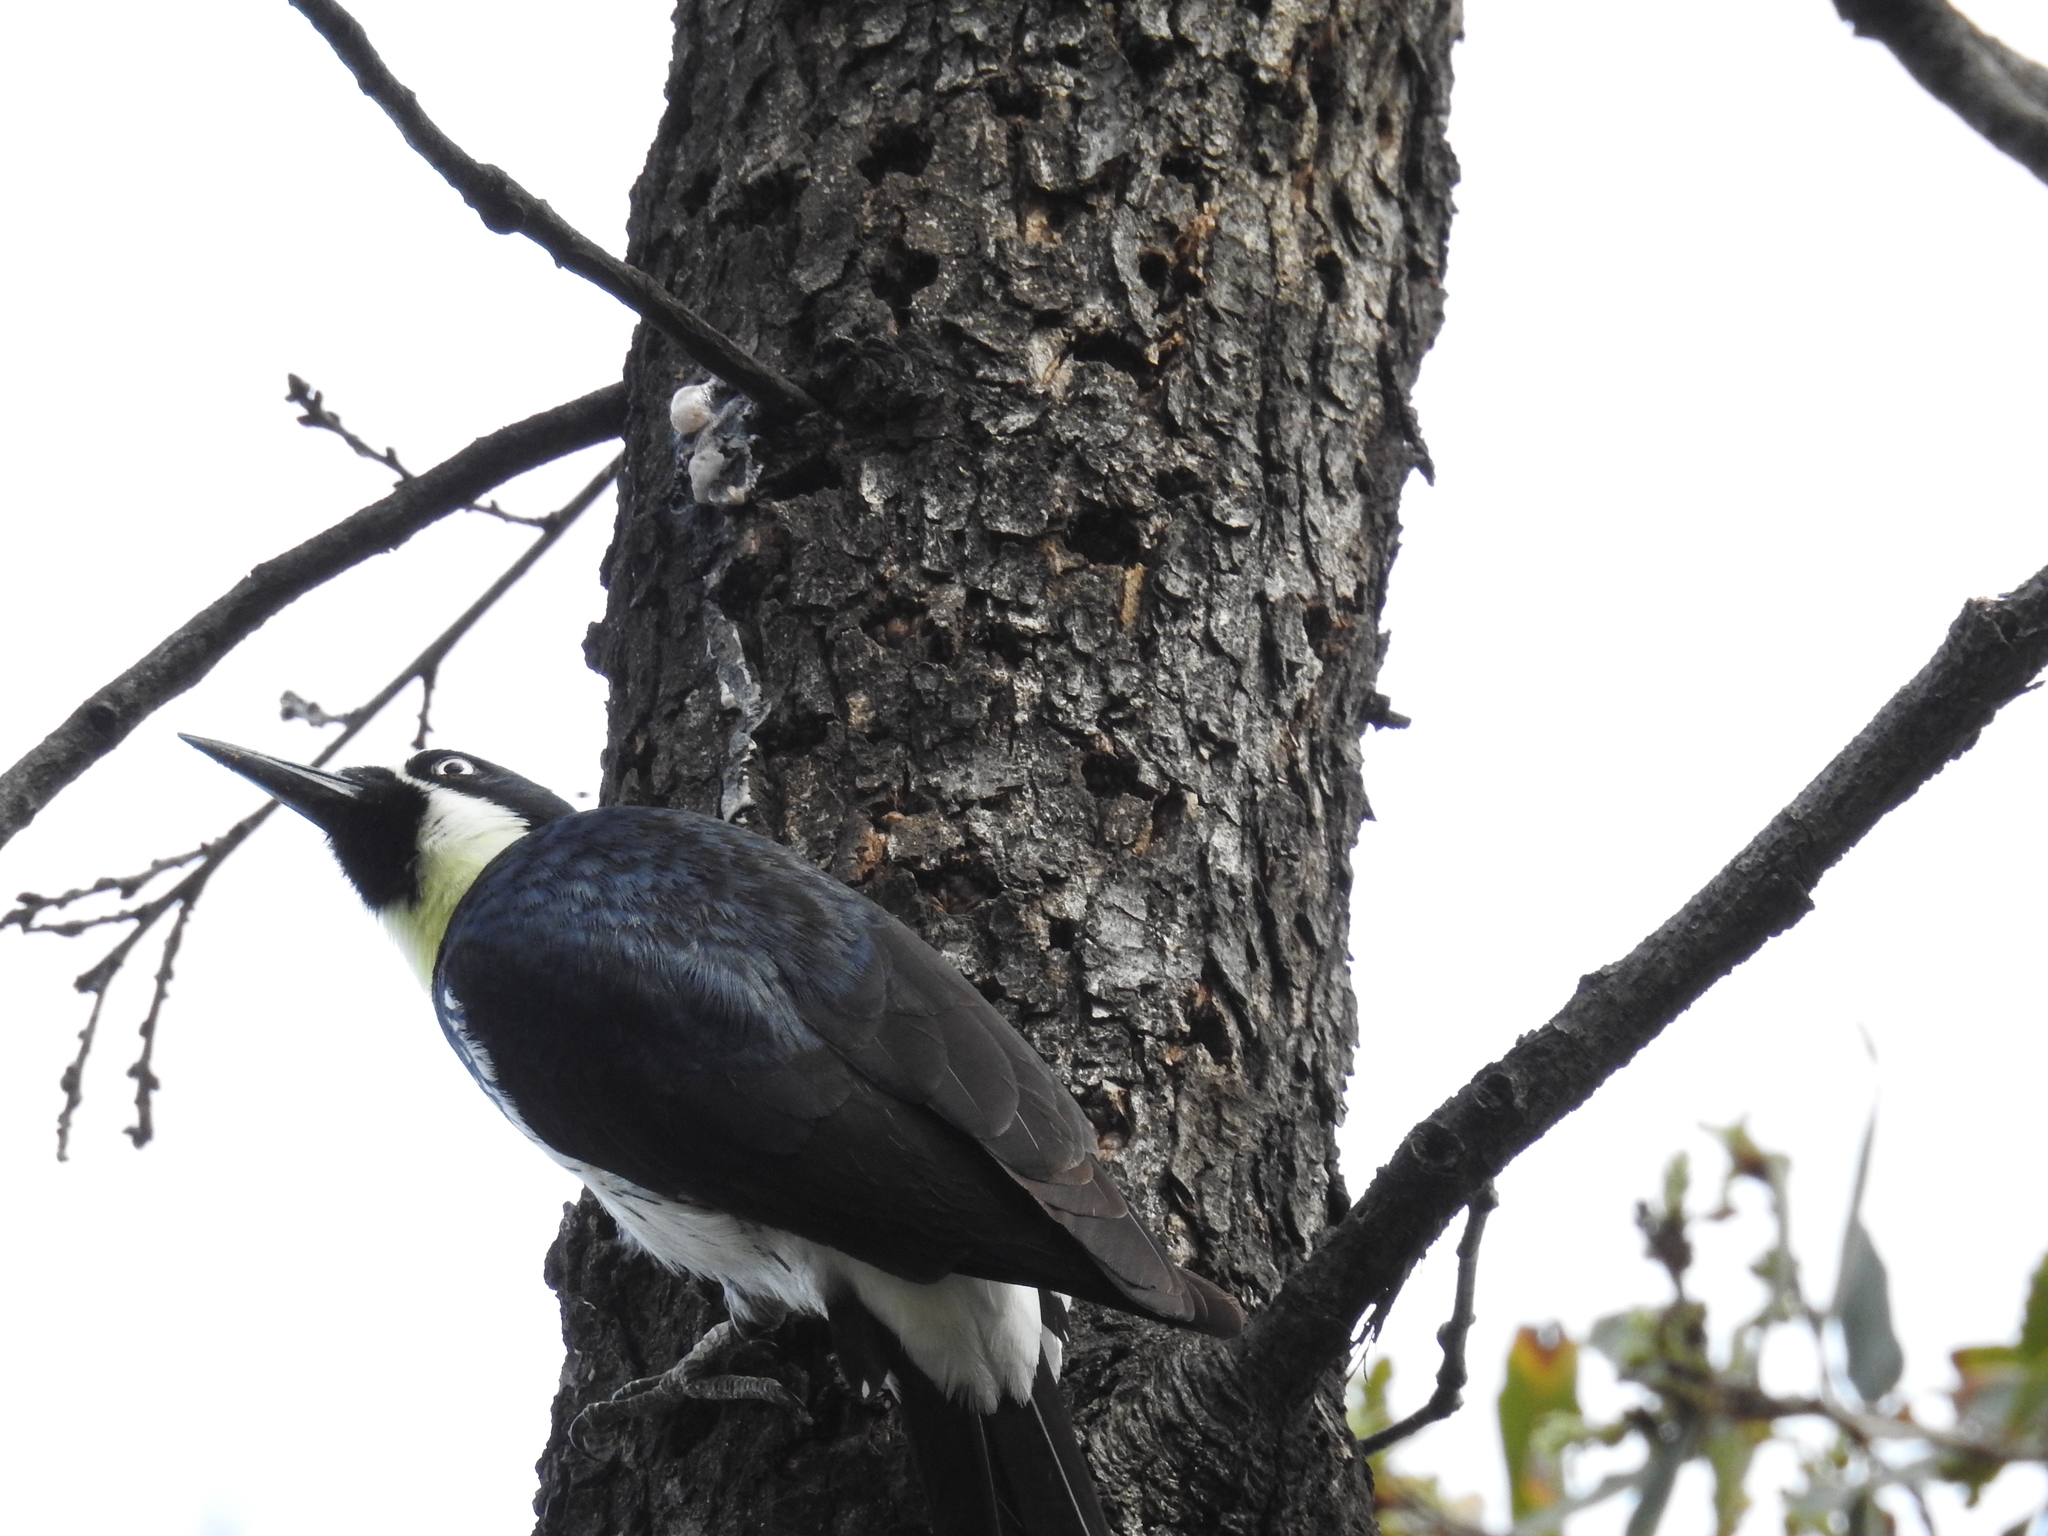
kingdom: Animalia
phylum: Chordata
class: Aves
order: Piciformes
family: Picidae
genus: Melanerpes
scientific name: Melanerpes formicivorus
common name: Acorn woodpecker
